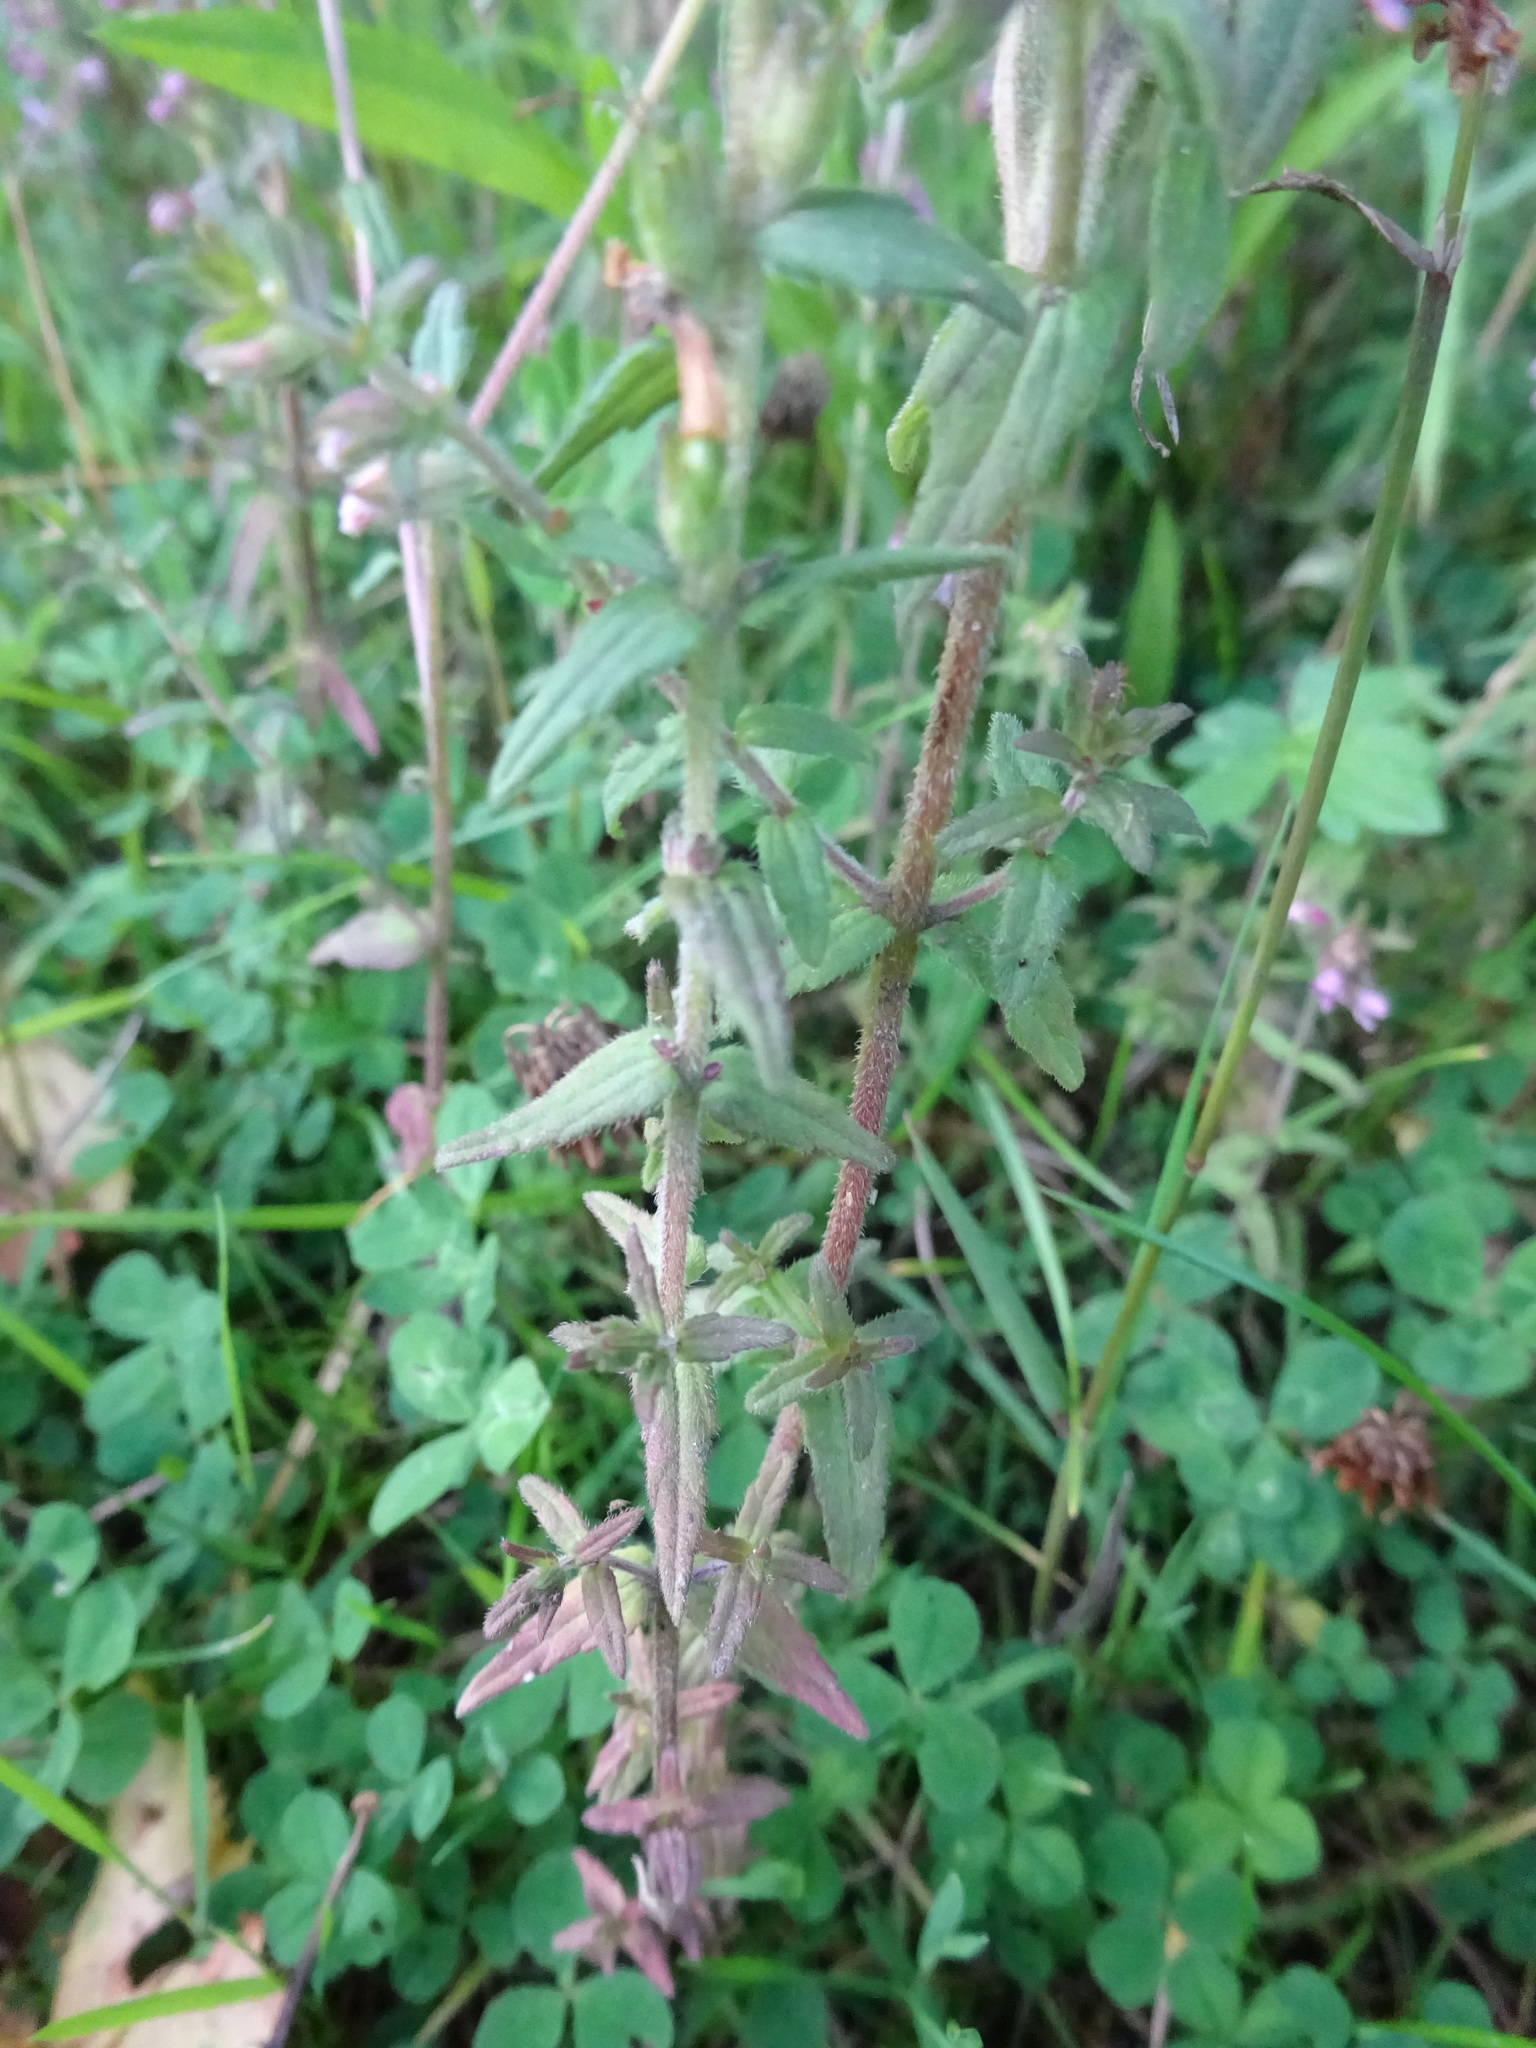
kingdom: Plantae
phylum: Tracheophyta
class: Magnoliopsida
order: Lamiales
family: Orobanchaceae
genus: Odontites
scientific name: Odontites vernus
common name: Red bartsia
